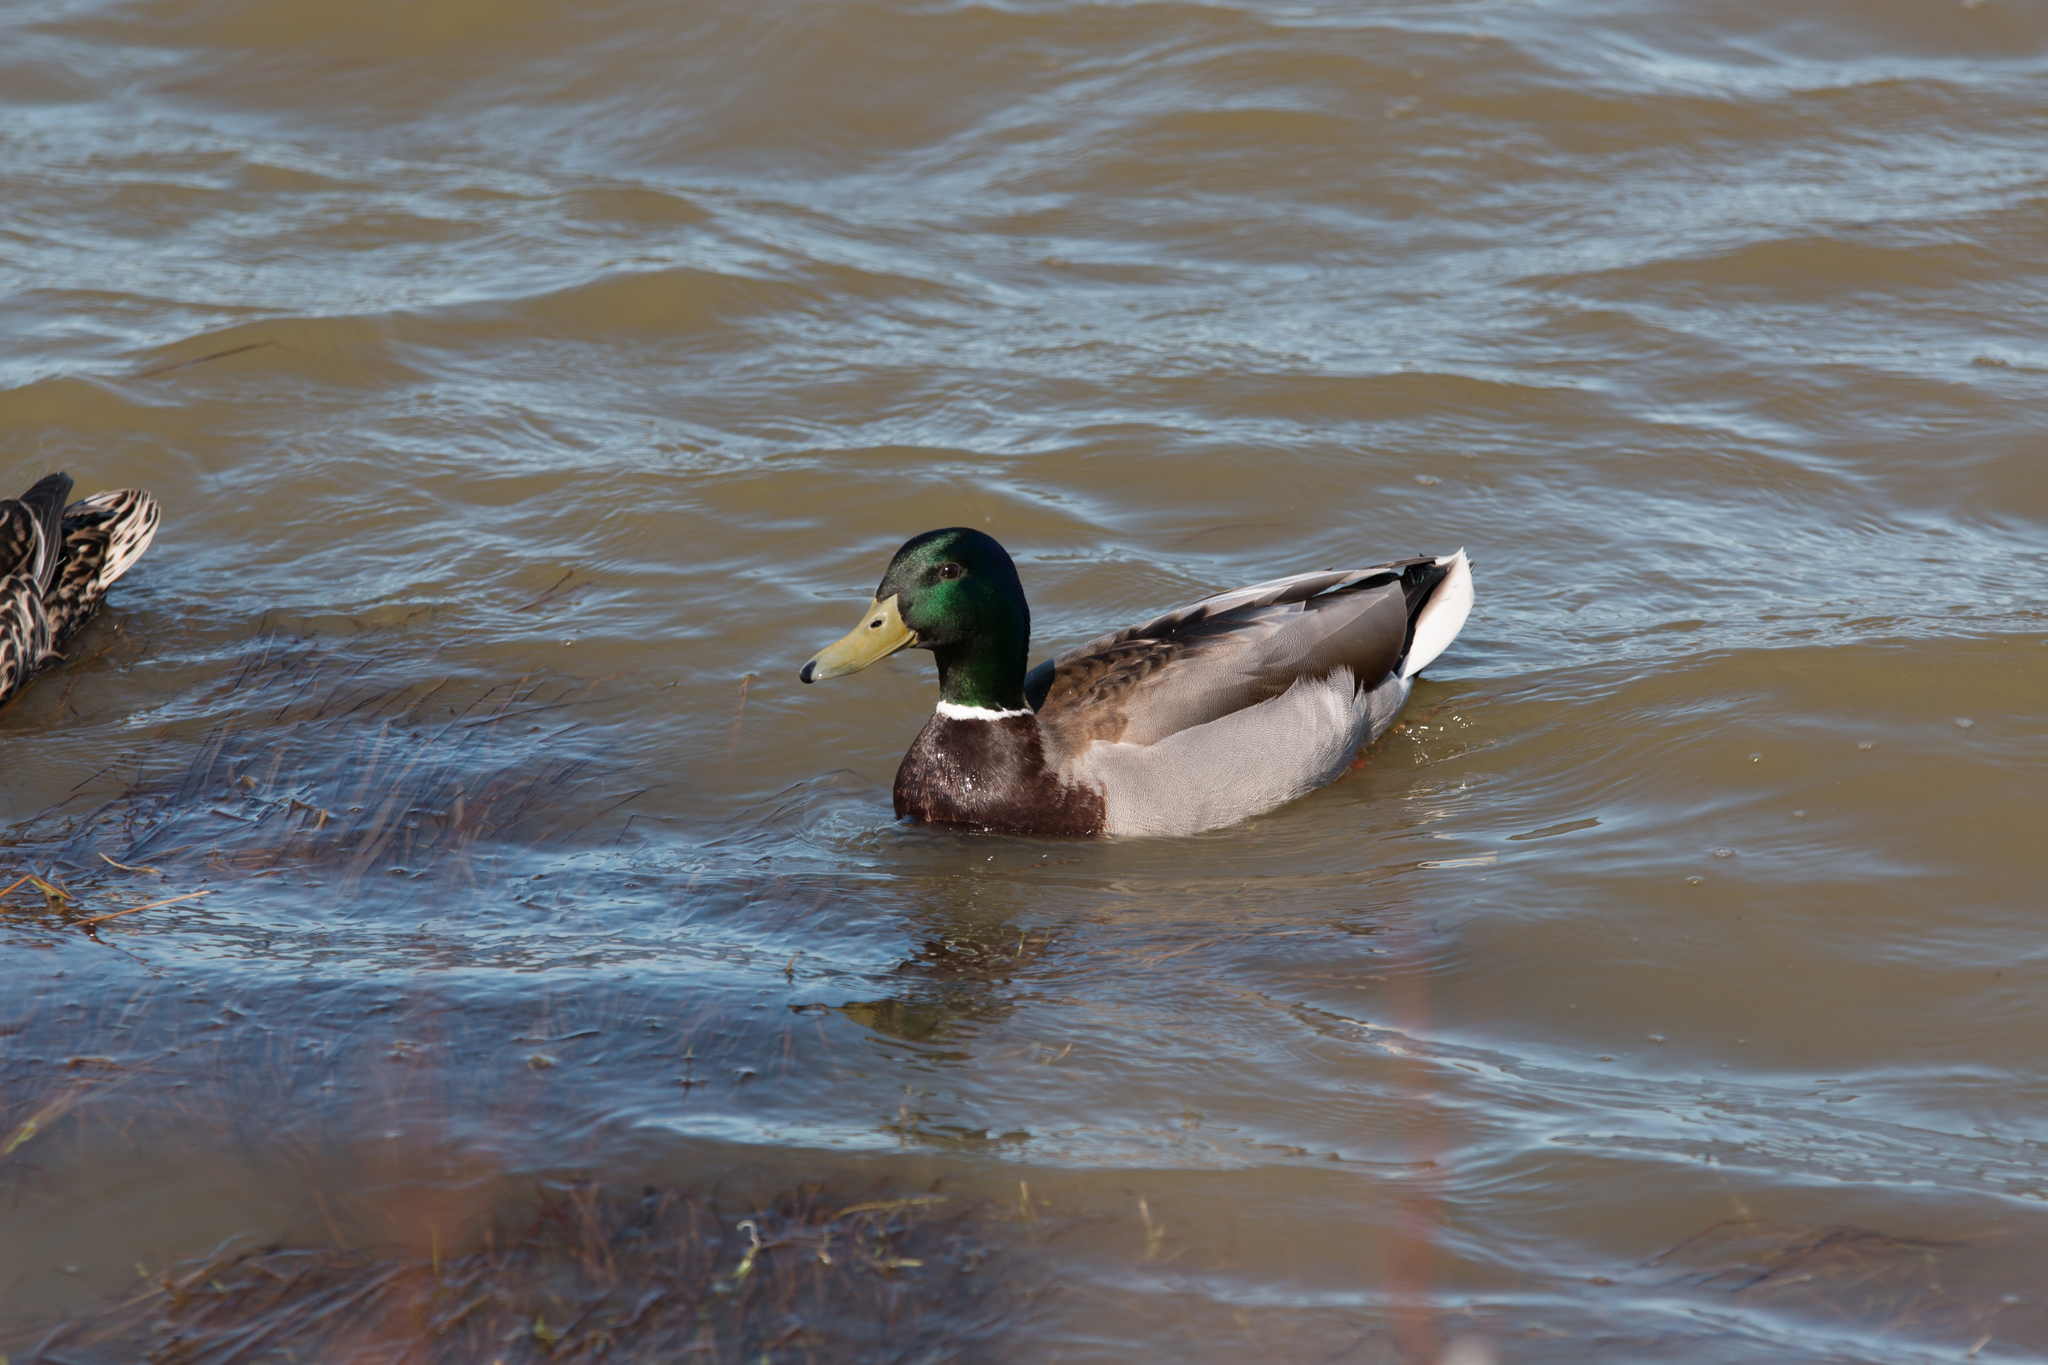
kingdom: Animalia
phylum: Chordata
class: Aves
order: Anseriformes
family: Anatidae
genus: Anas
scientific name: Anas platyrhynchos
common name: Mallard
